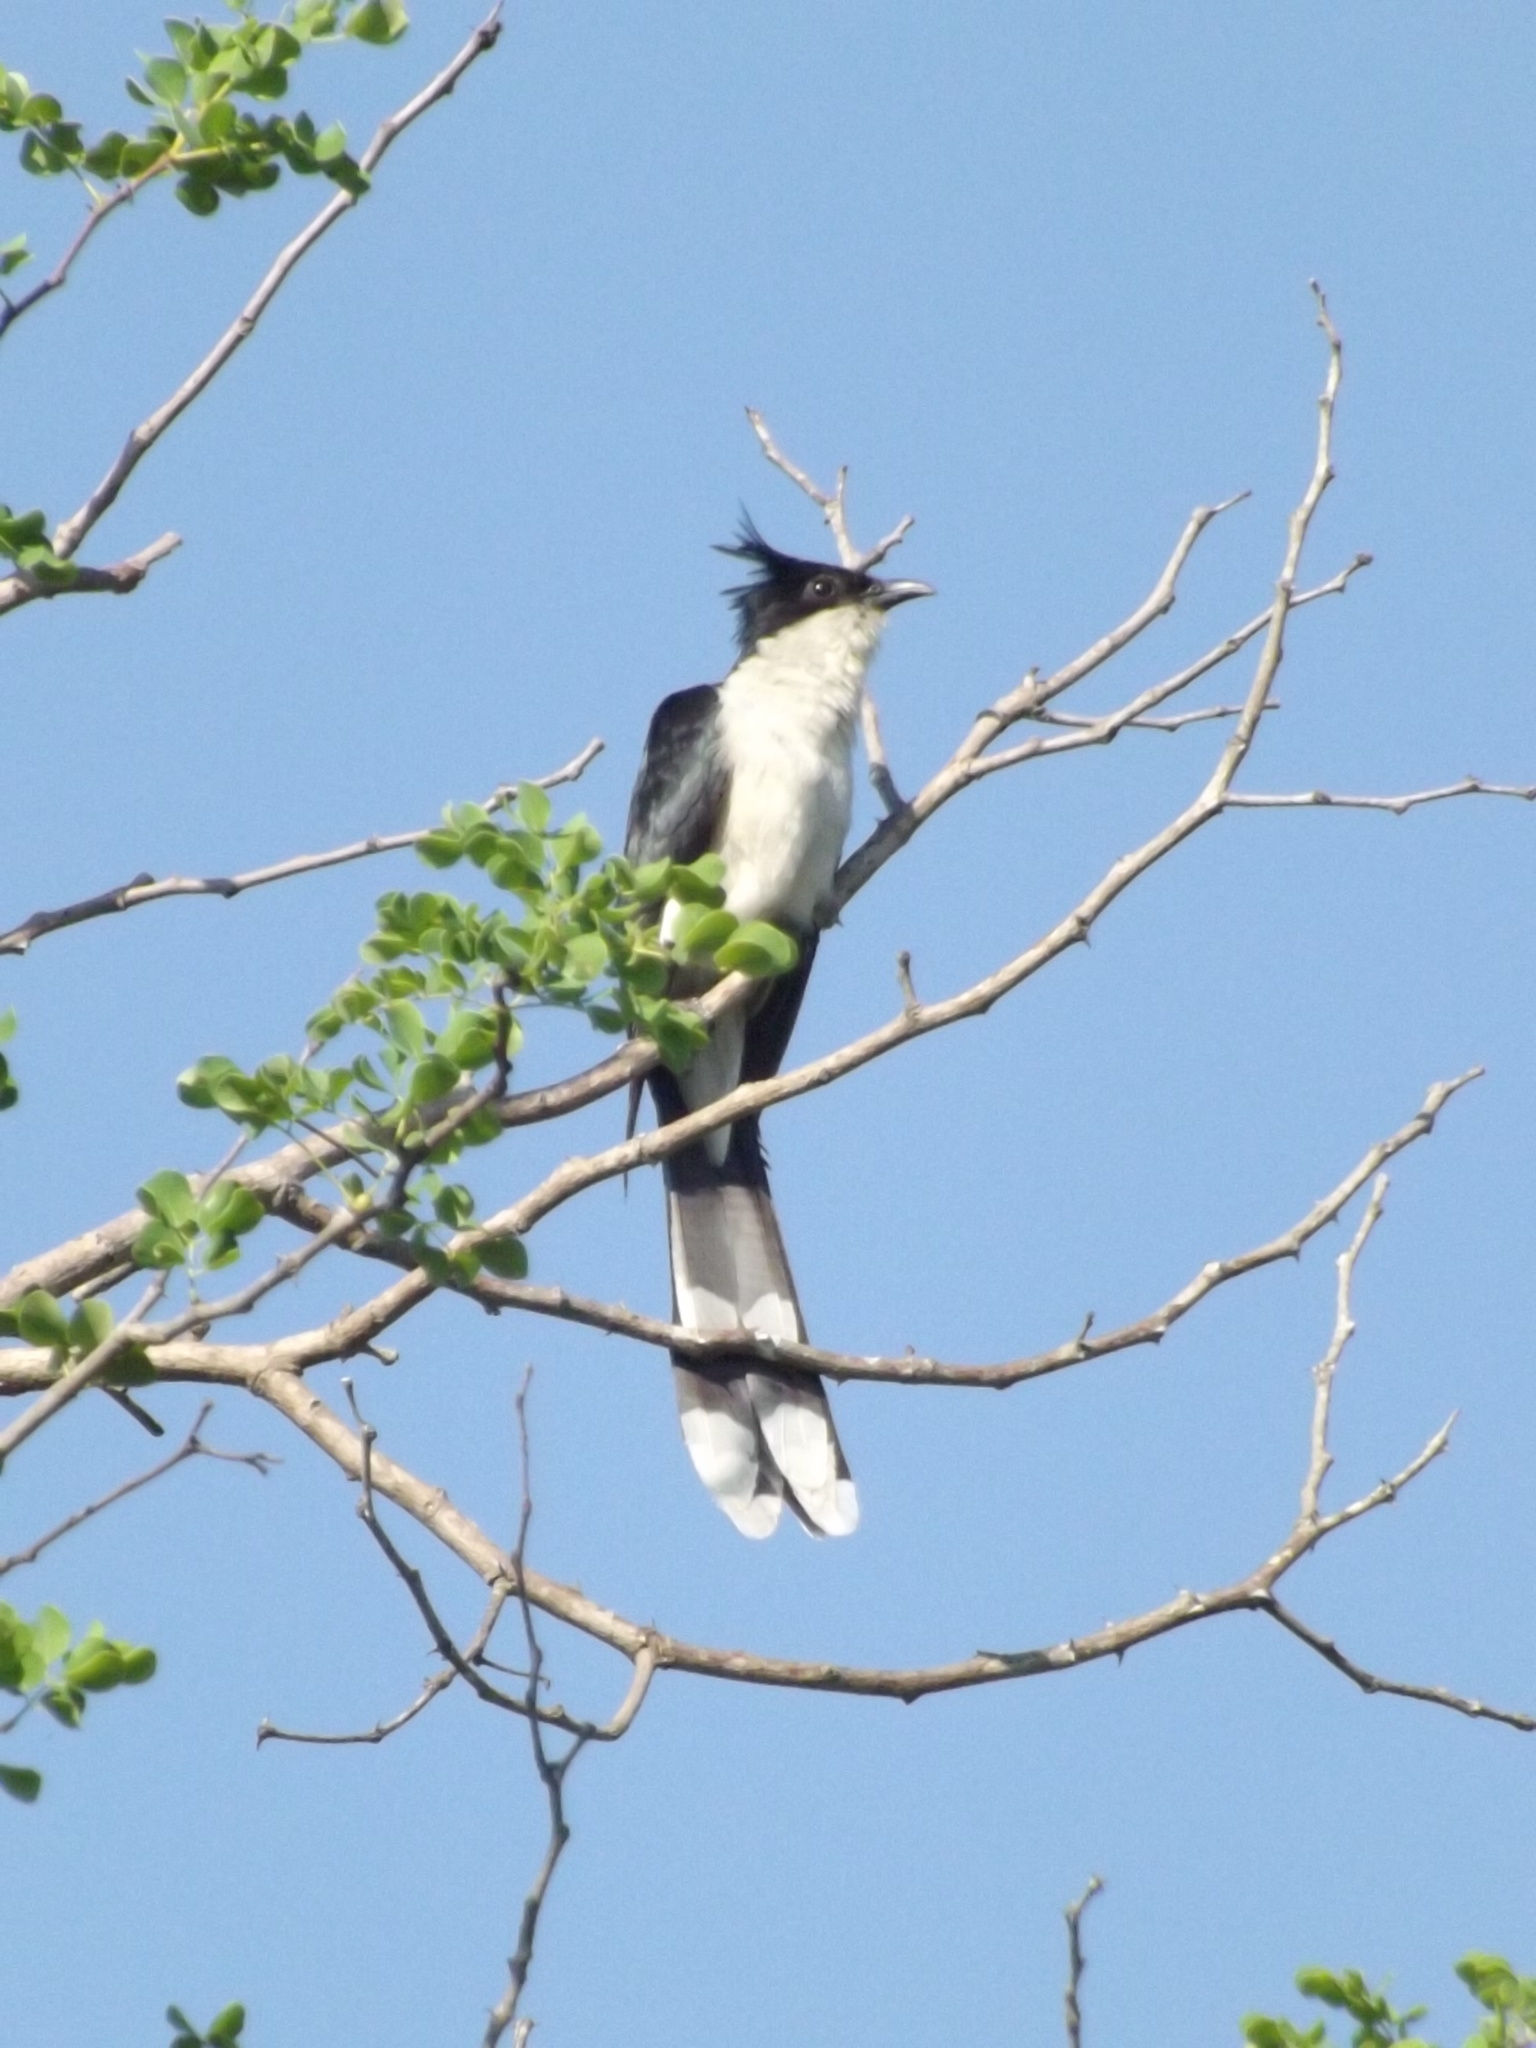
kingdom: Animalia
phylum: Chordata
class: Aves
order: Cuculiformes
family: Cuculidae
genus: Clamator
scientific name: Clamator jacobinus
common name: Jacobin cuckoo
